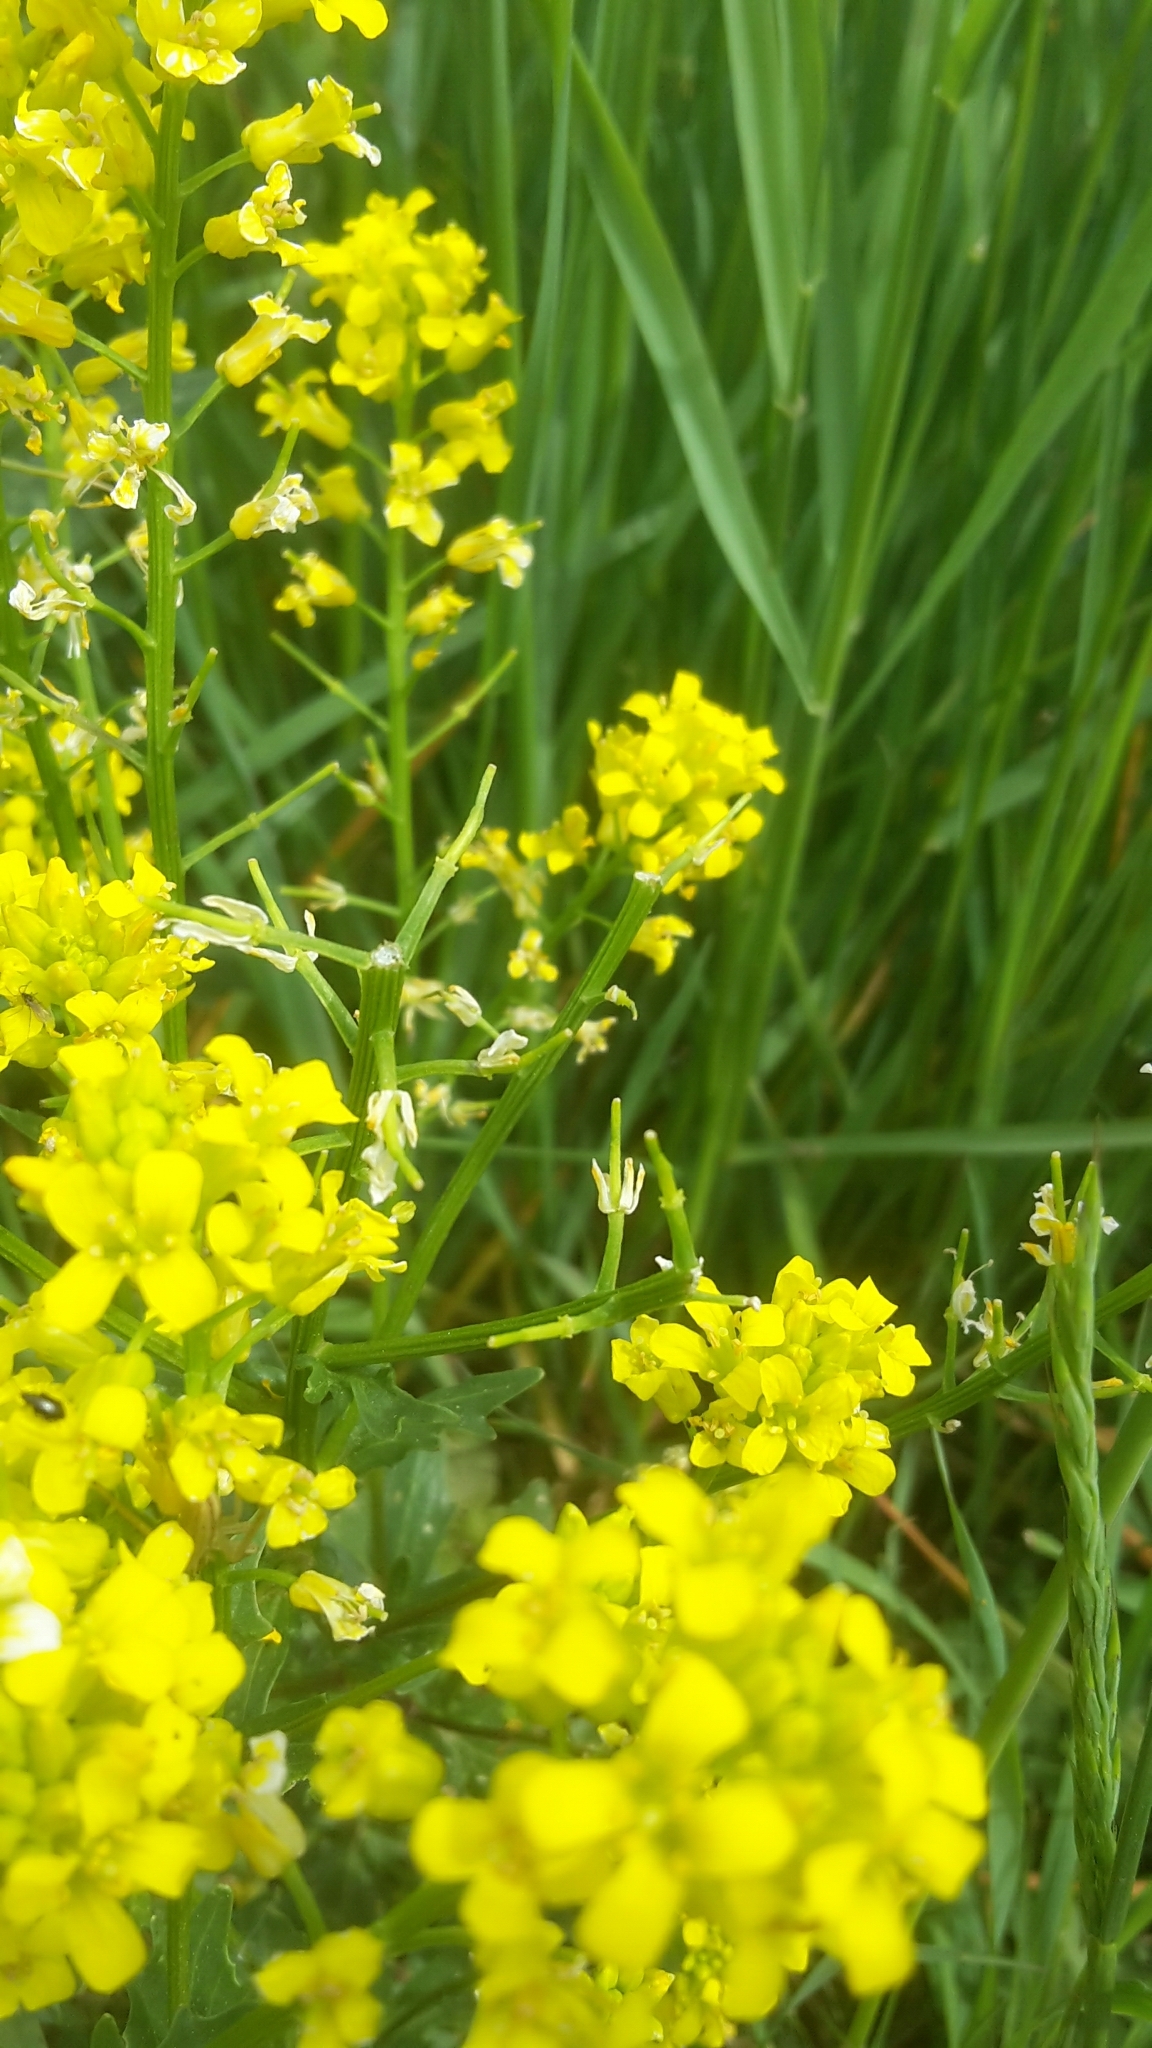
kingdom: Plantae
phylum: Tracheophyta
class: Magnoliopsida
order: Brassicales
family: Brassicaceae
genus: Barbarea
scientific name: Barbarea vulgaris
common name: Cressy-greens
